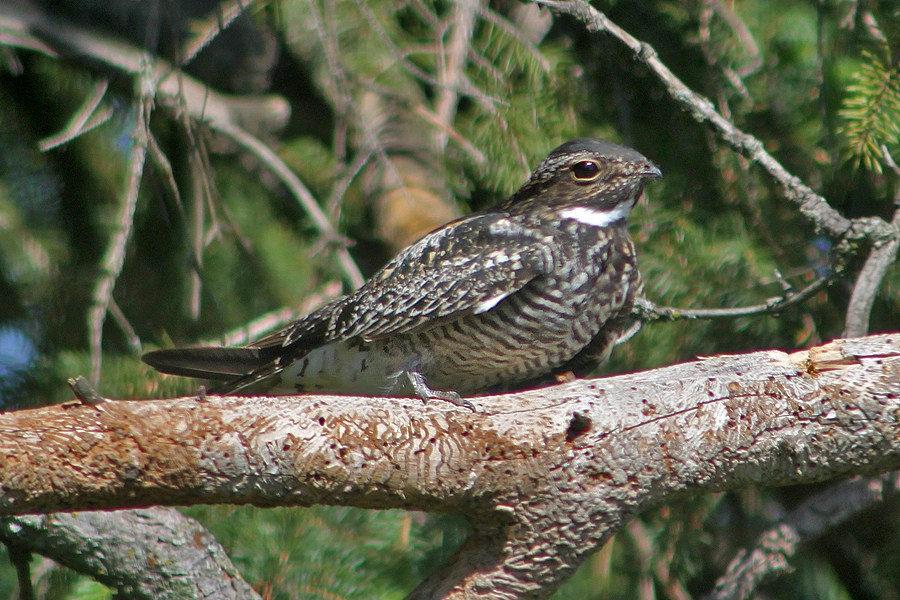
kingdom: Animalia
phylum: Chordata
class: Aves
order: Caprimulgiformes
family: Caprimulgidae
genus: Chordeiles
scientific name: Chordeiles minor
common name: Common nighthawk
